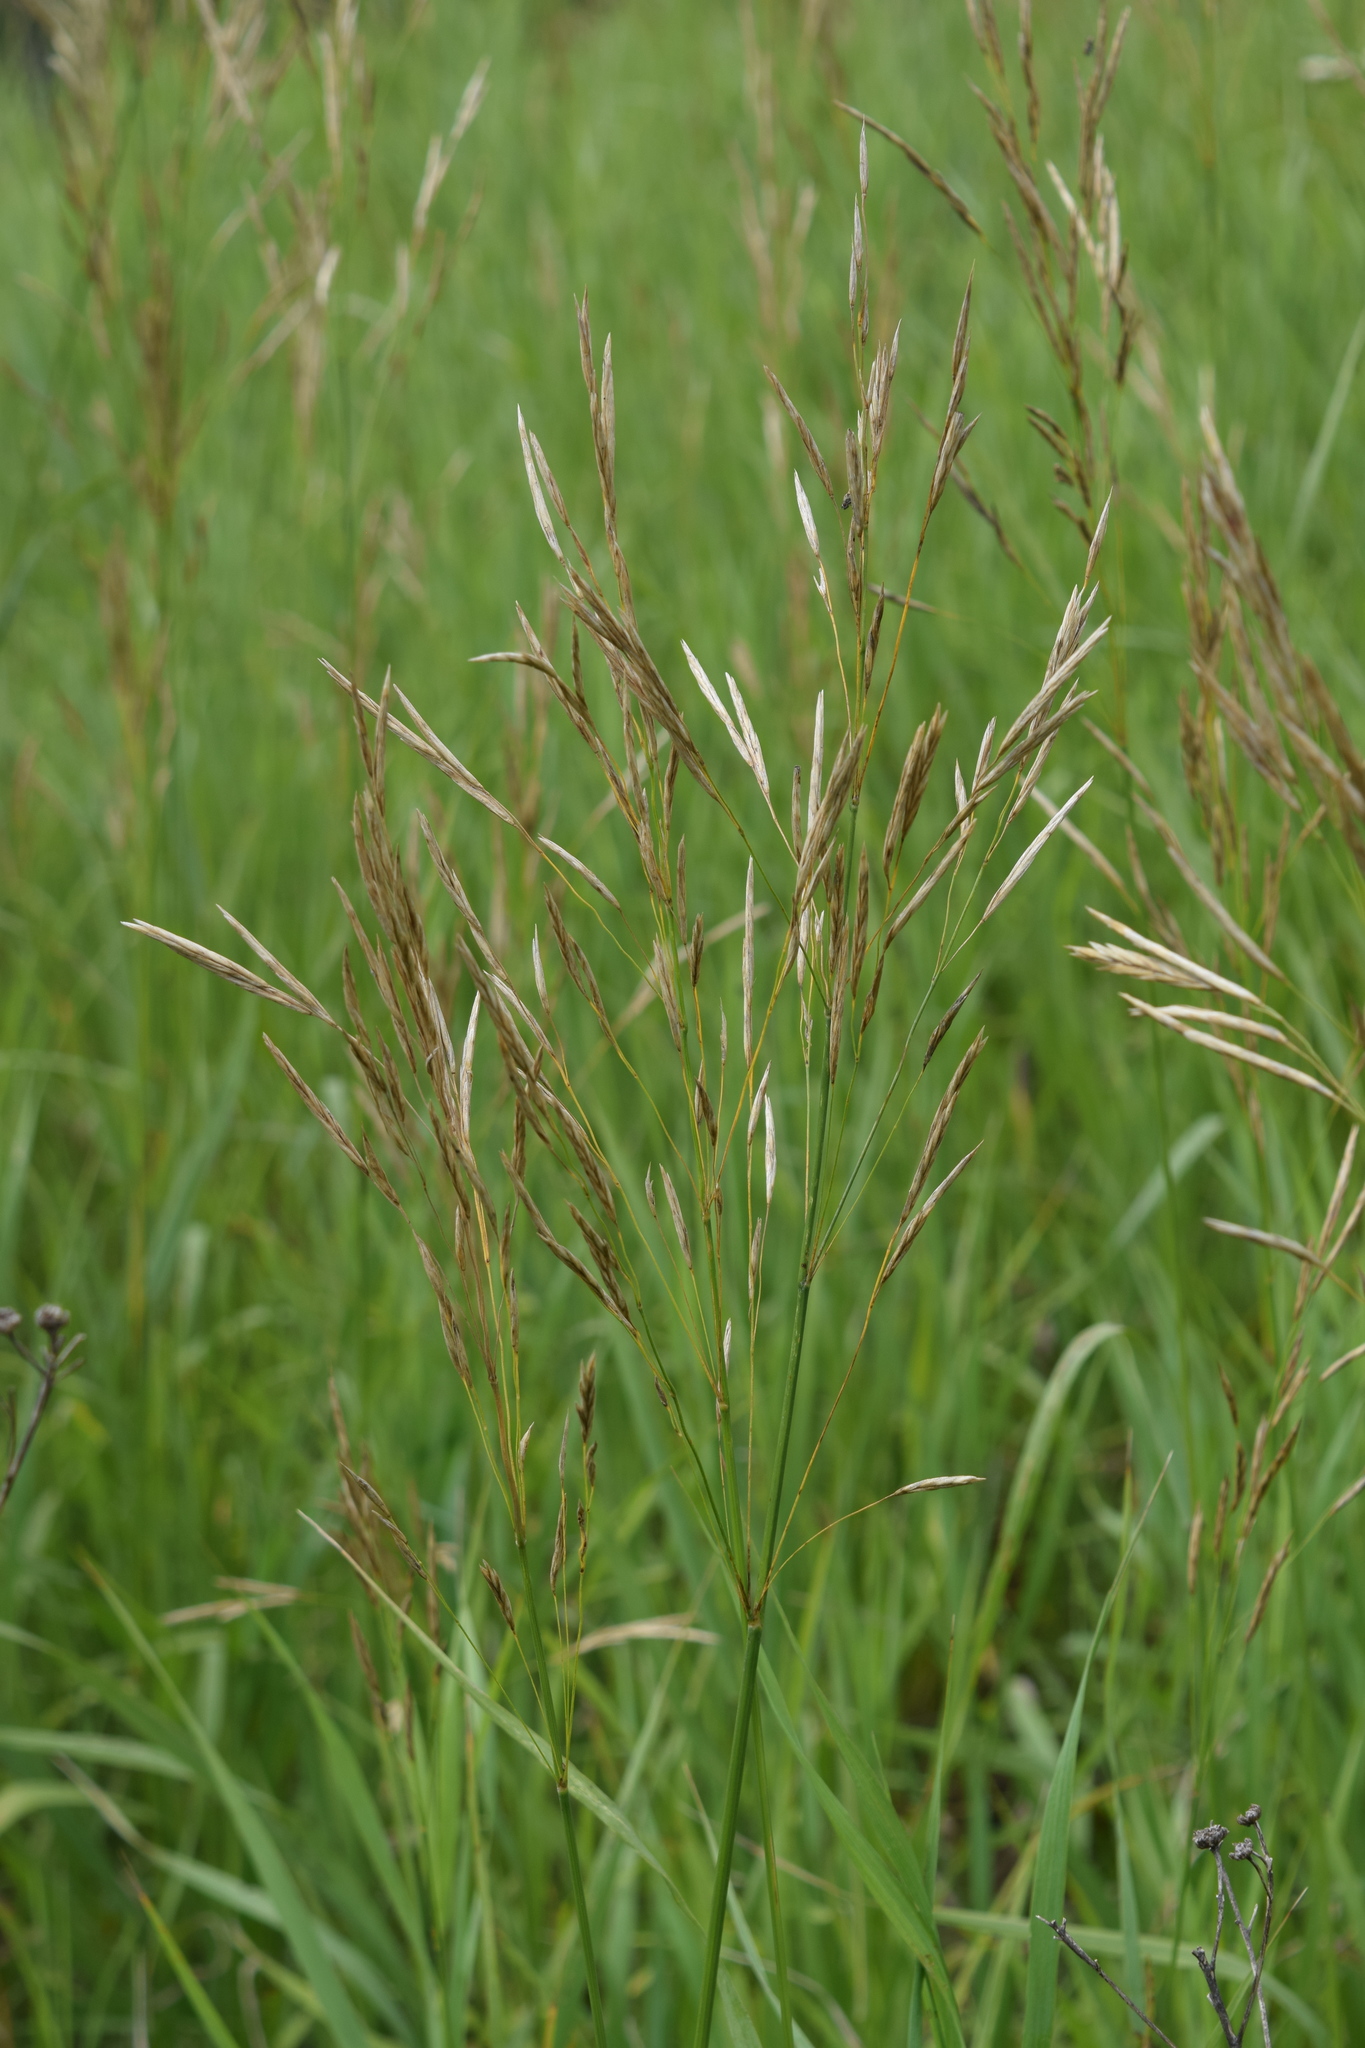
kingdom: Plantae
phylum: Tracheophyta
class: Liliopsida
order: Poales
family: Poaceae
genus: Bromus
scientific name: Bromus inermis
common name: Smooth brome
